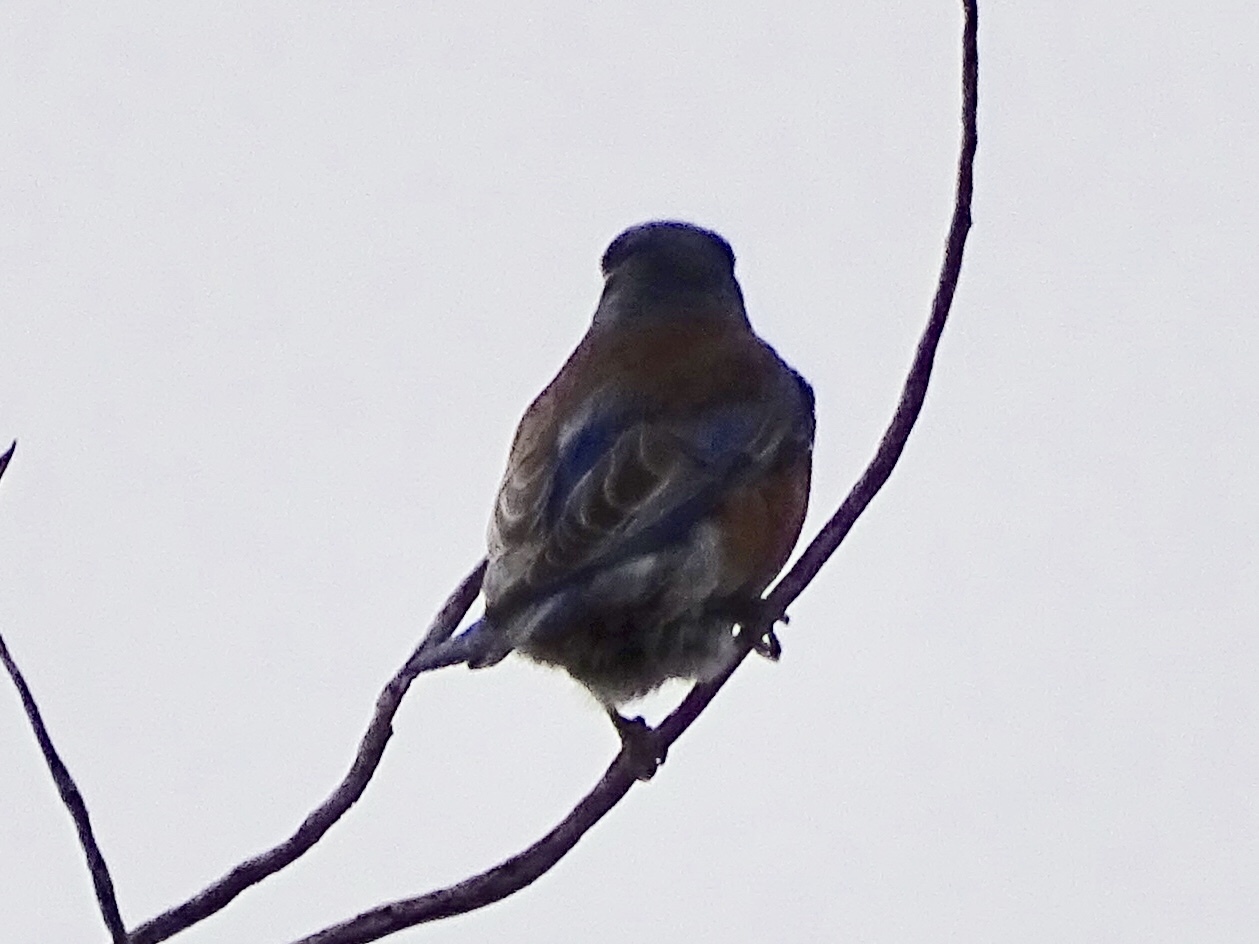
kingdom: Animalia
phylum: Chordata
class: Aves
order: Passeriformes
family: Turdidae
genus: Sialia
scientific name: Sialia mexicana
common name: Western bluebird
